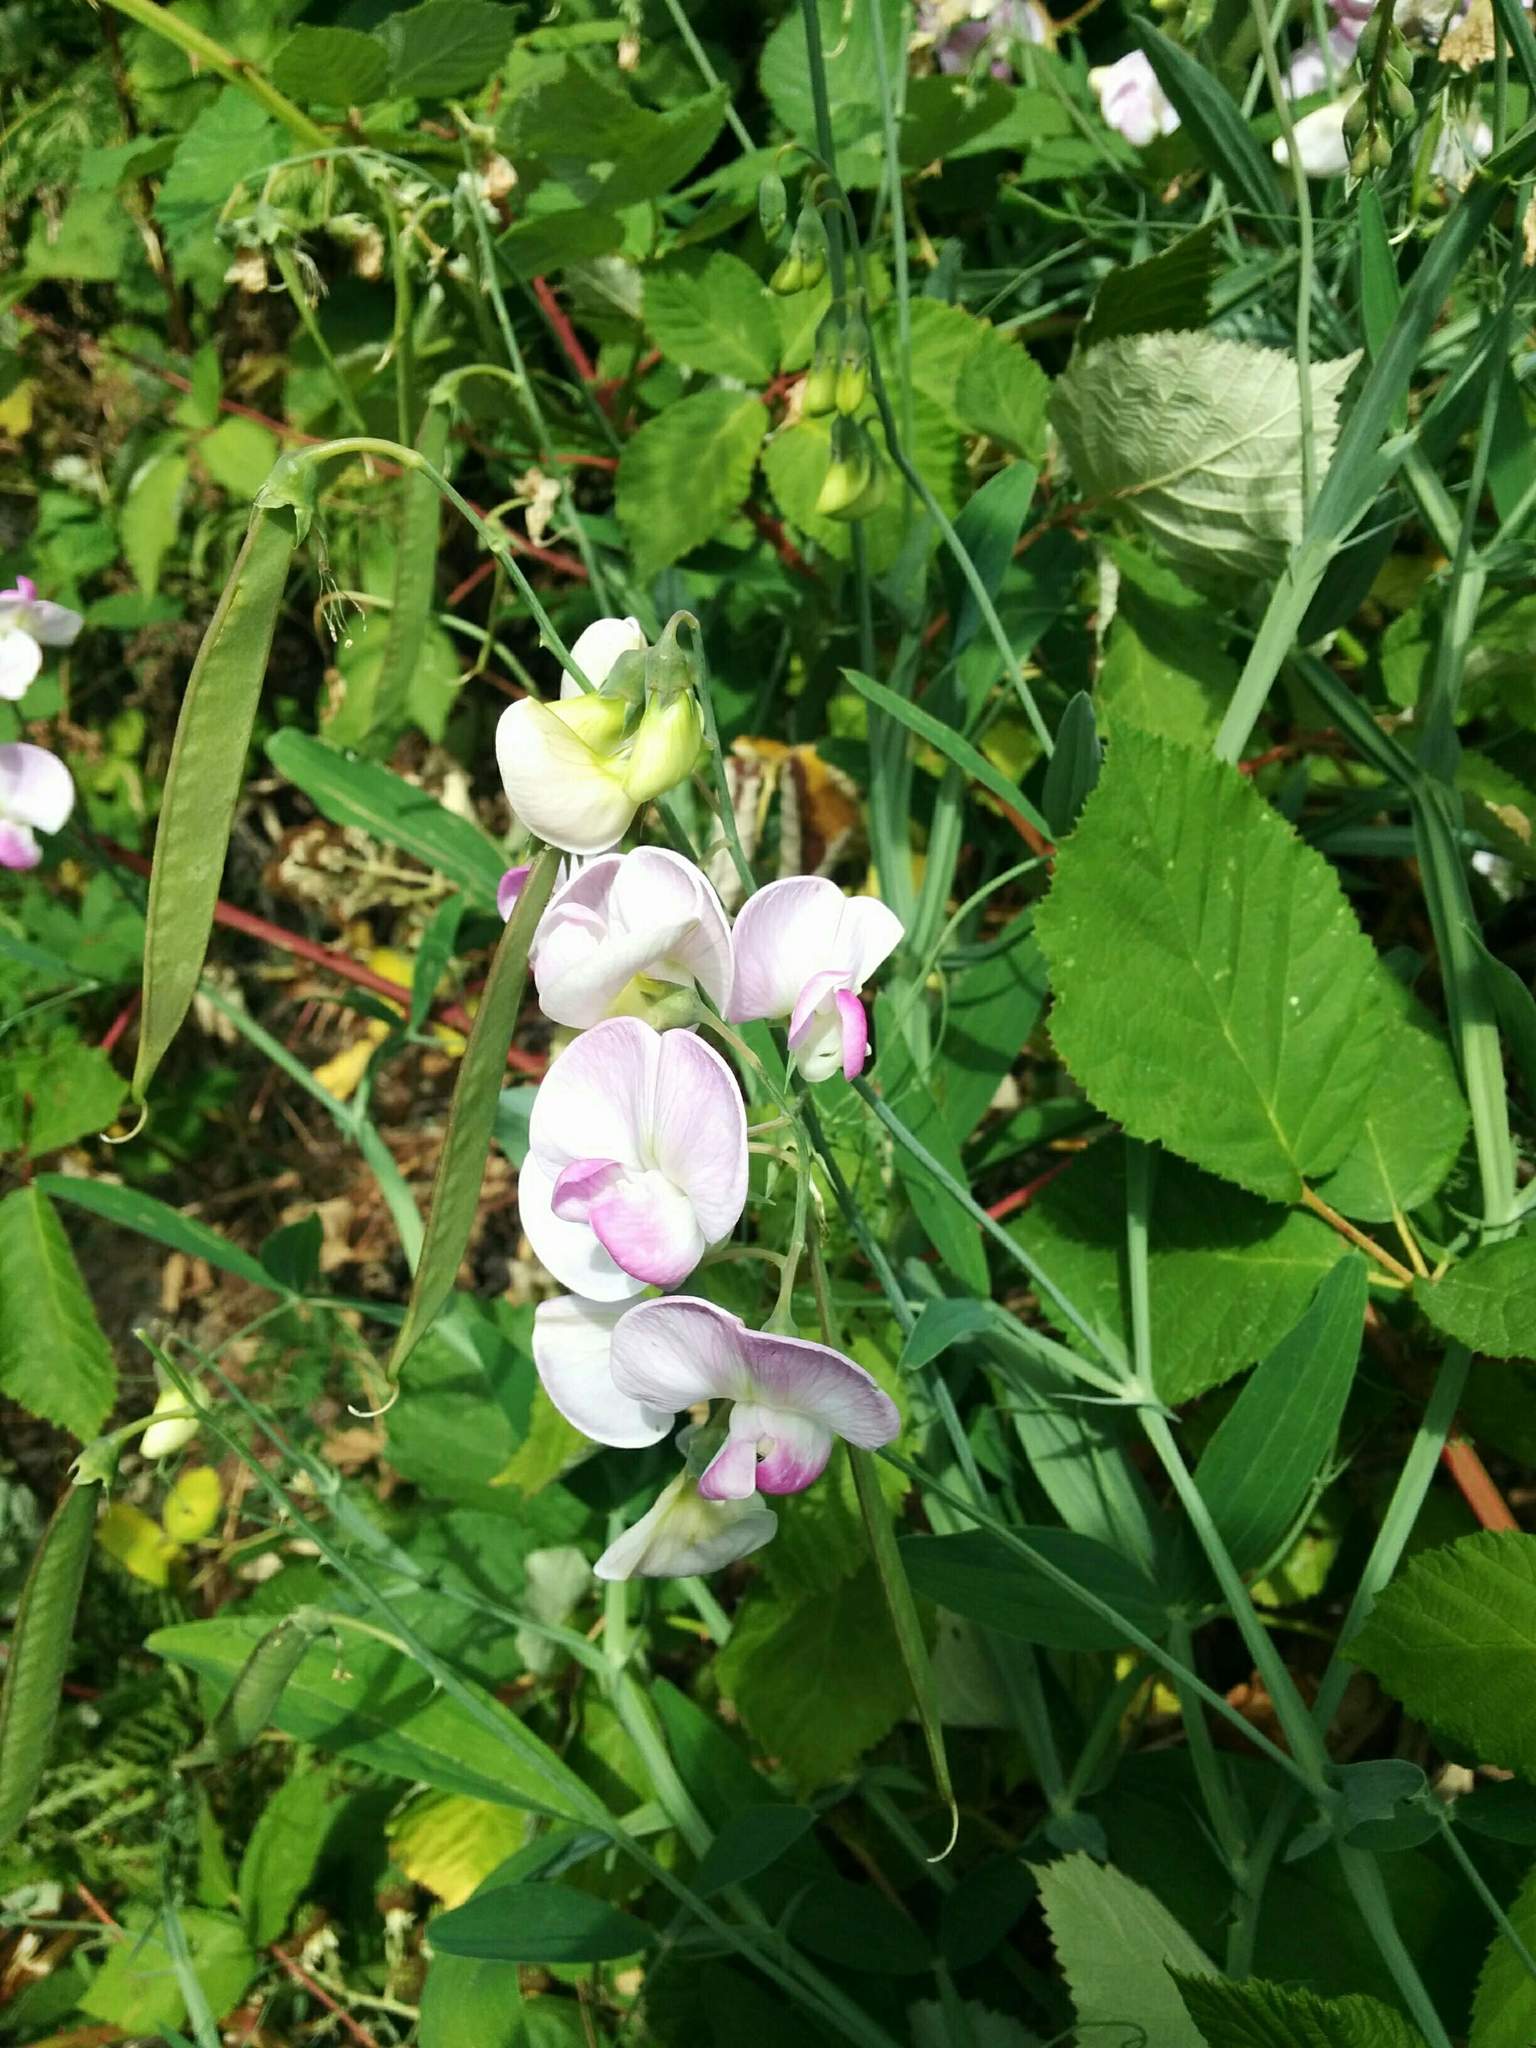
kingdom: Plantae
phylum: Tracheophyta
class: Magnoliopsida
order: Fabales
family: Fabaceae
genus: Lathyrus
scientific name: Lathyrus latifolius
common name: Perennial pea
